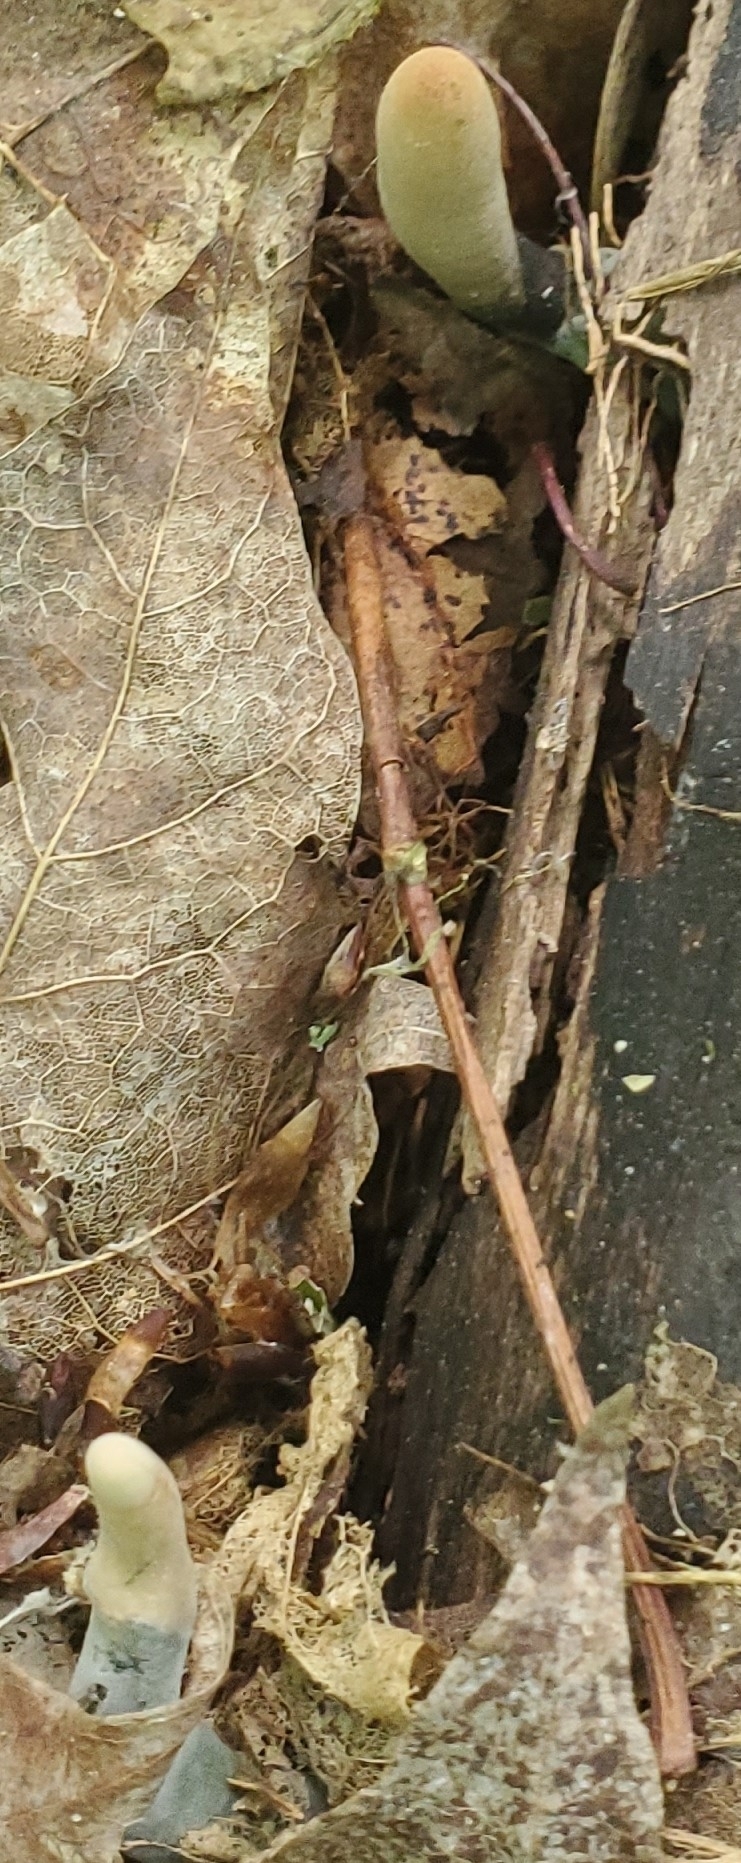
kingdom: Fungi
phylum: Ascomycota
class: Sordariomycetes
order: Xylariales
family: Xylariaceae
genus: Xylaria
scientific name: Xylaria polymorpha
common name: Dead man's fingers
